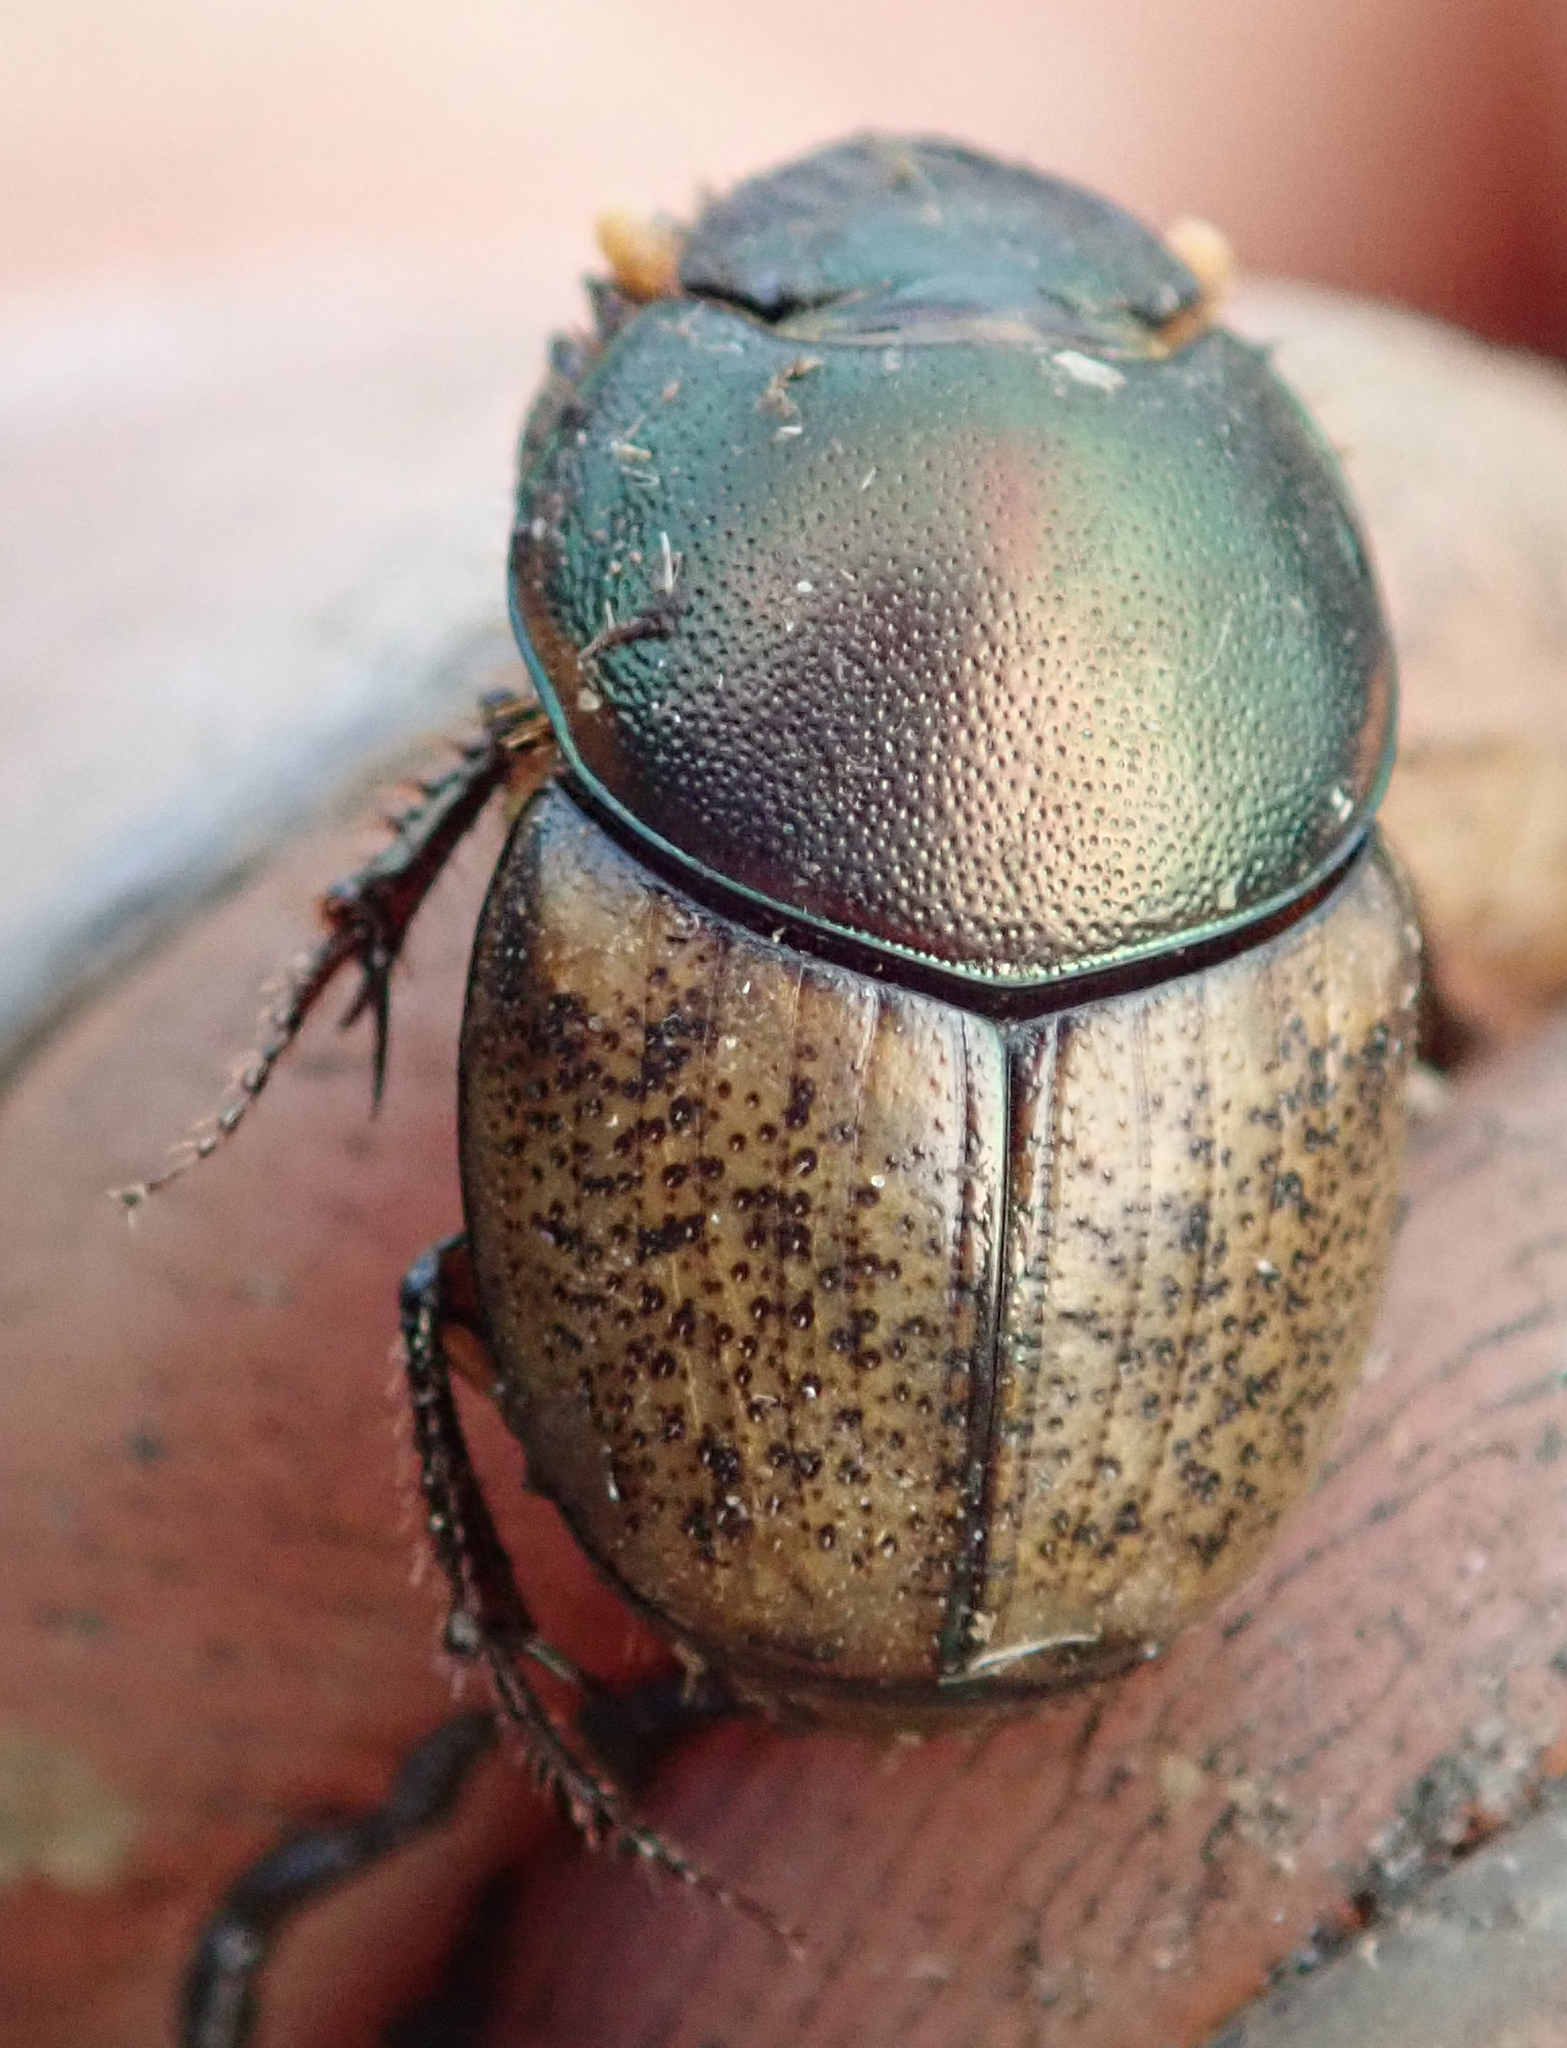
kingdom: Animalia
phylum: Arthropoda
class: Insecta
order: Coleoptera
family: Scarabaeidae
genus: Onthophagus
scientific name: Onthophagus plebejus
